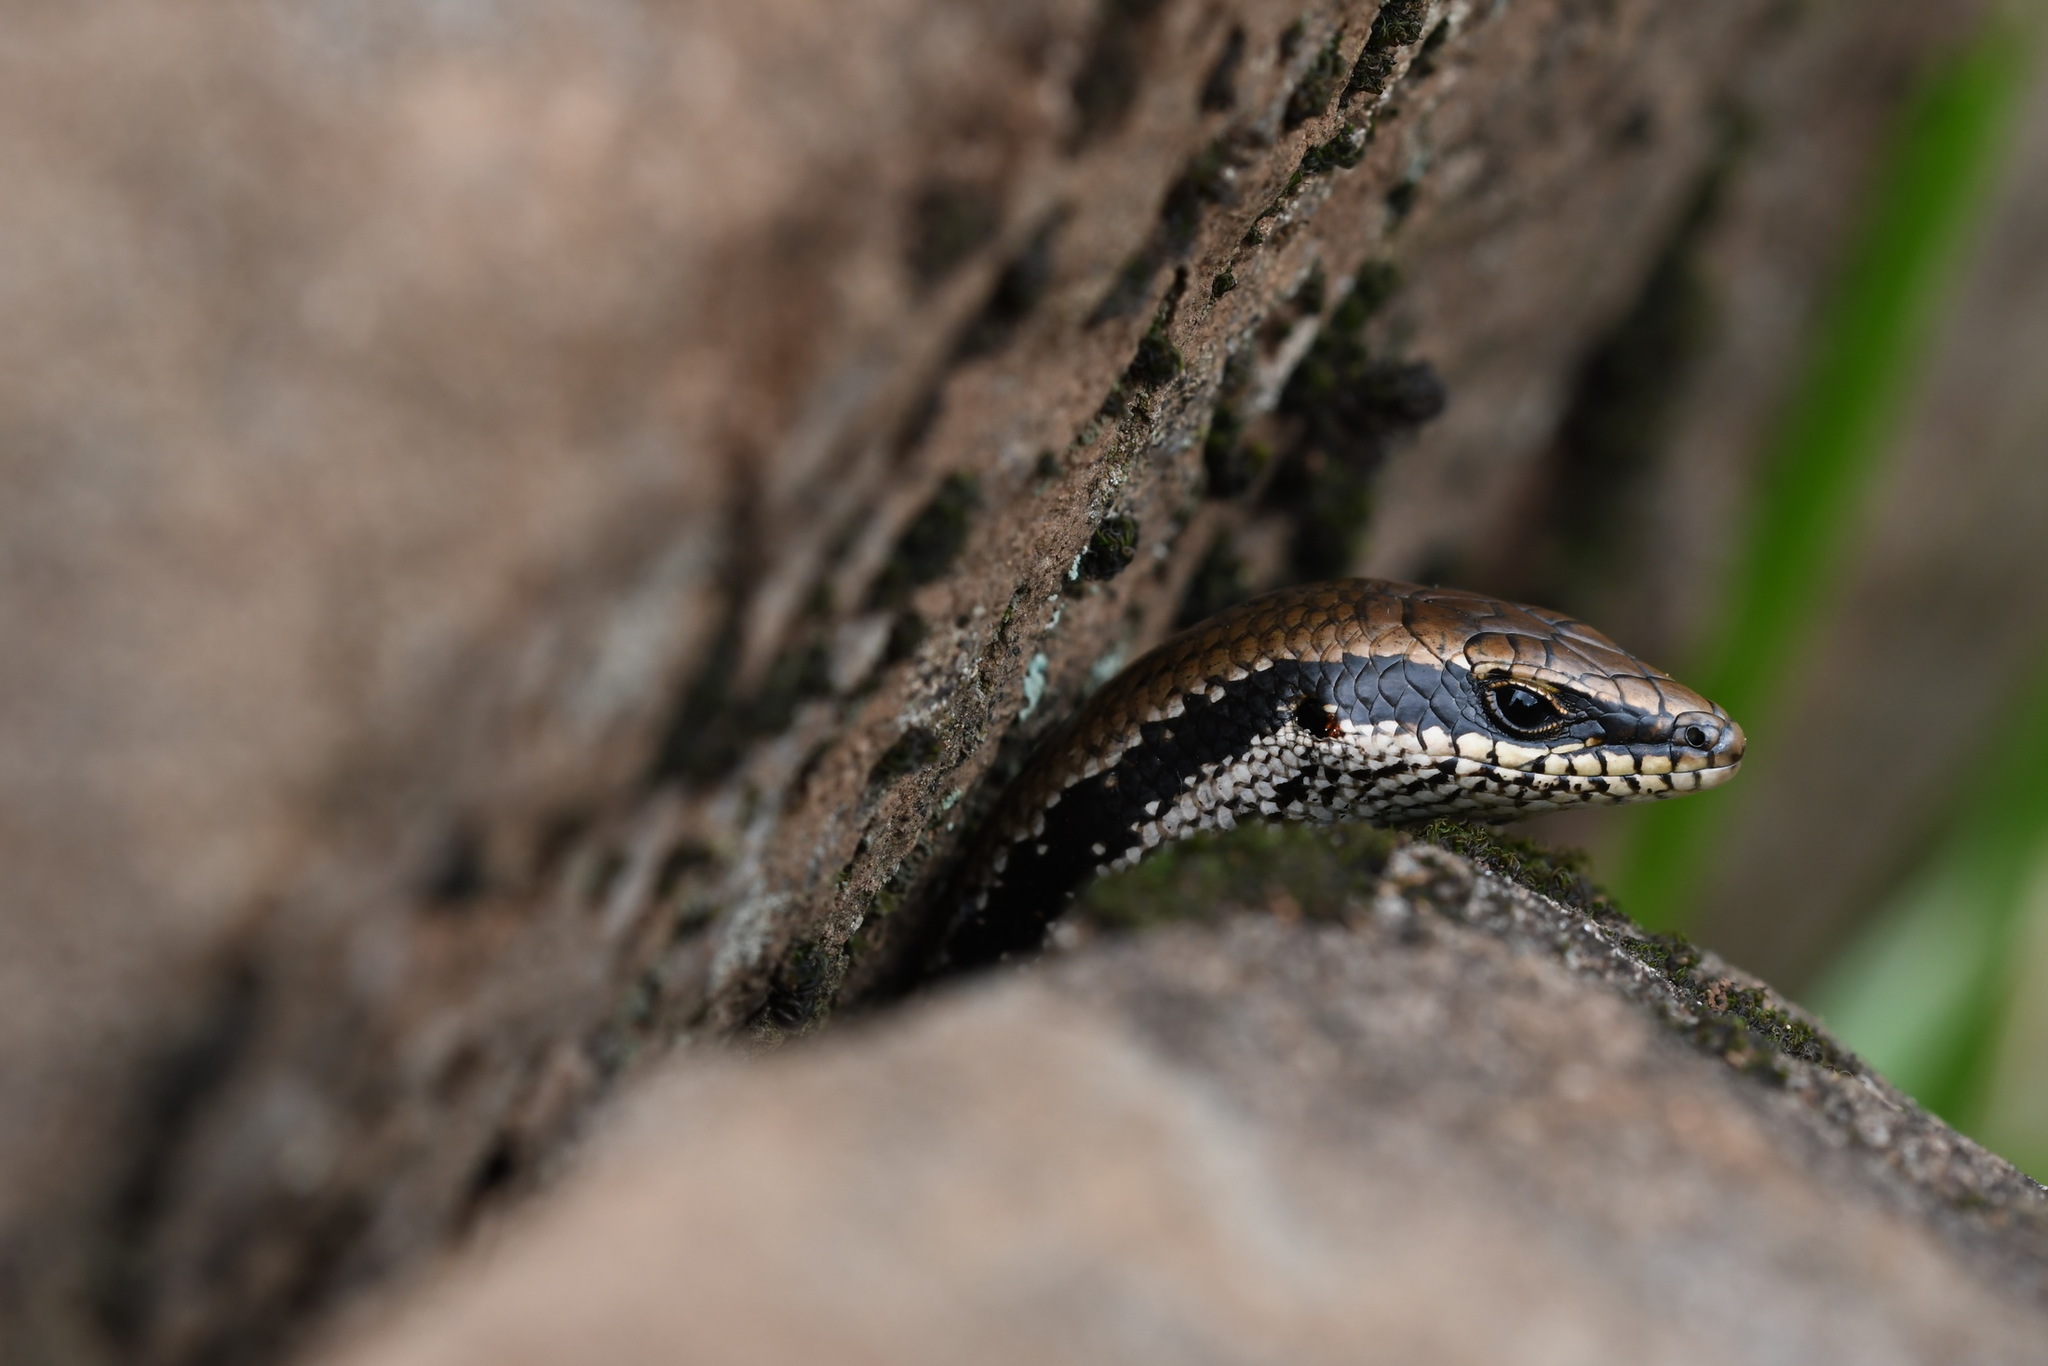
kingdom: Animalia
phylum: Chordata
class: Squamata
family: Scincidae
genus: Notomabuya
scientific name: Notomabuya frenata
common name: Cope's mabuya
